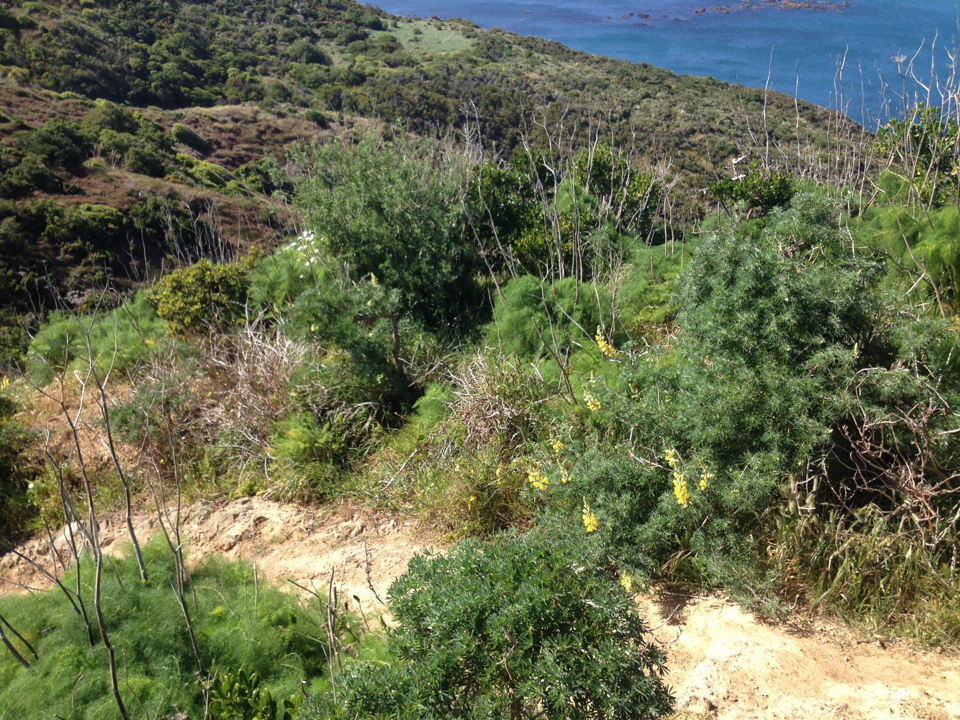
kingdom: Plantae
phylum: Tracheophyta
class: Magnoliopsida
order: Apiales
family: Apiaceae
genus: Foeniculum
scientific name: Foeniculum vulgare
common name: Fennel
